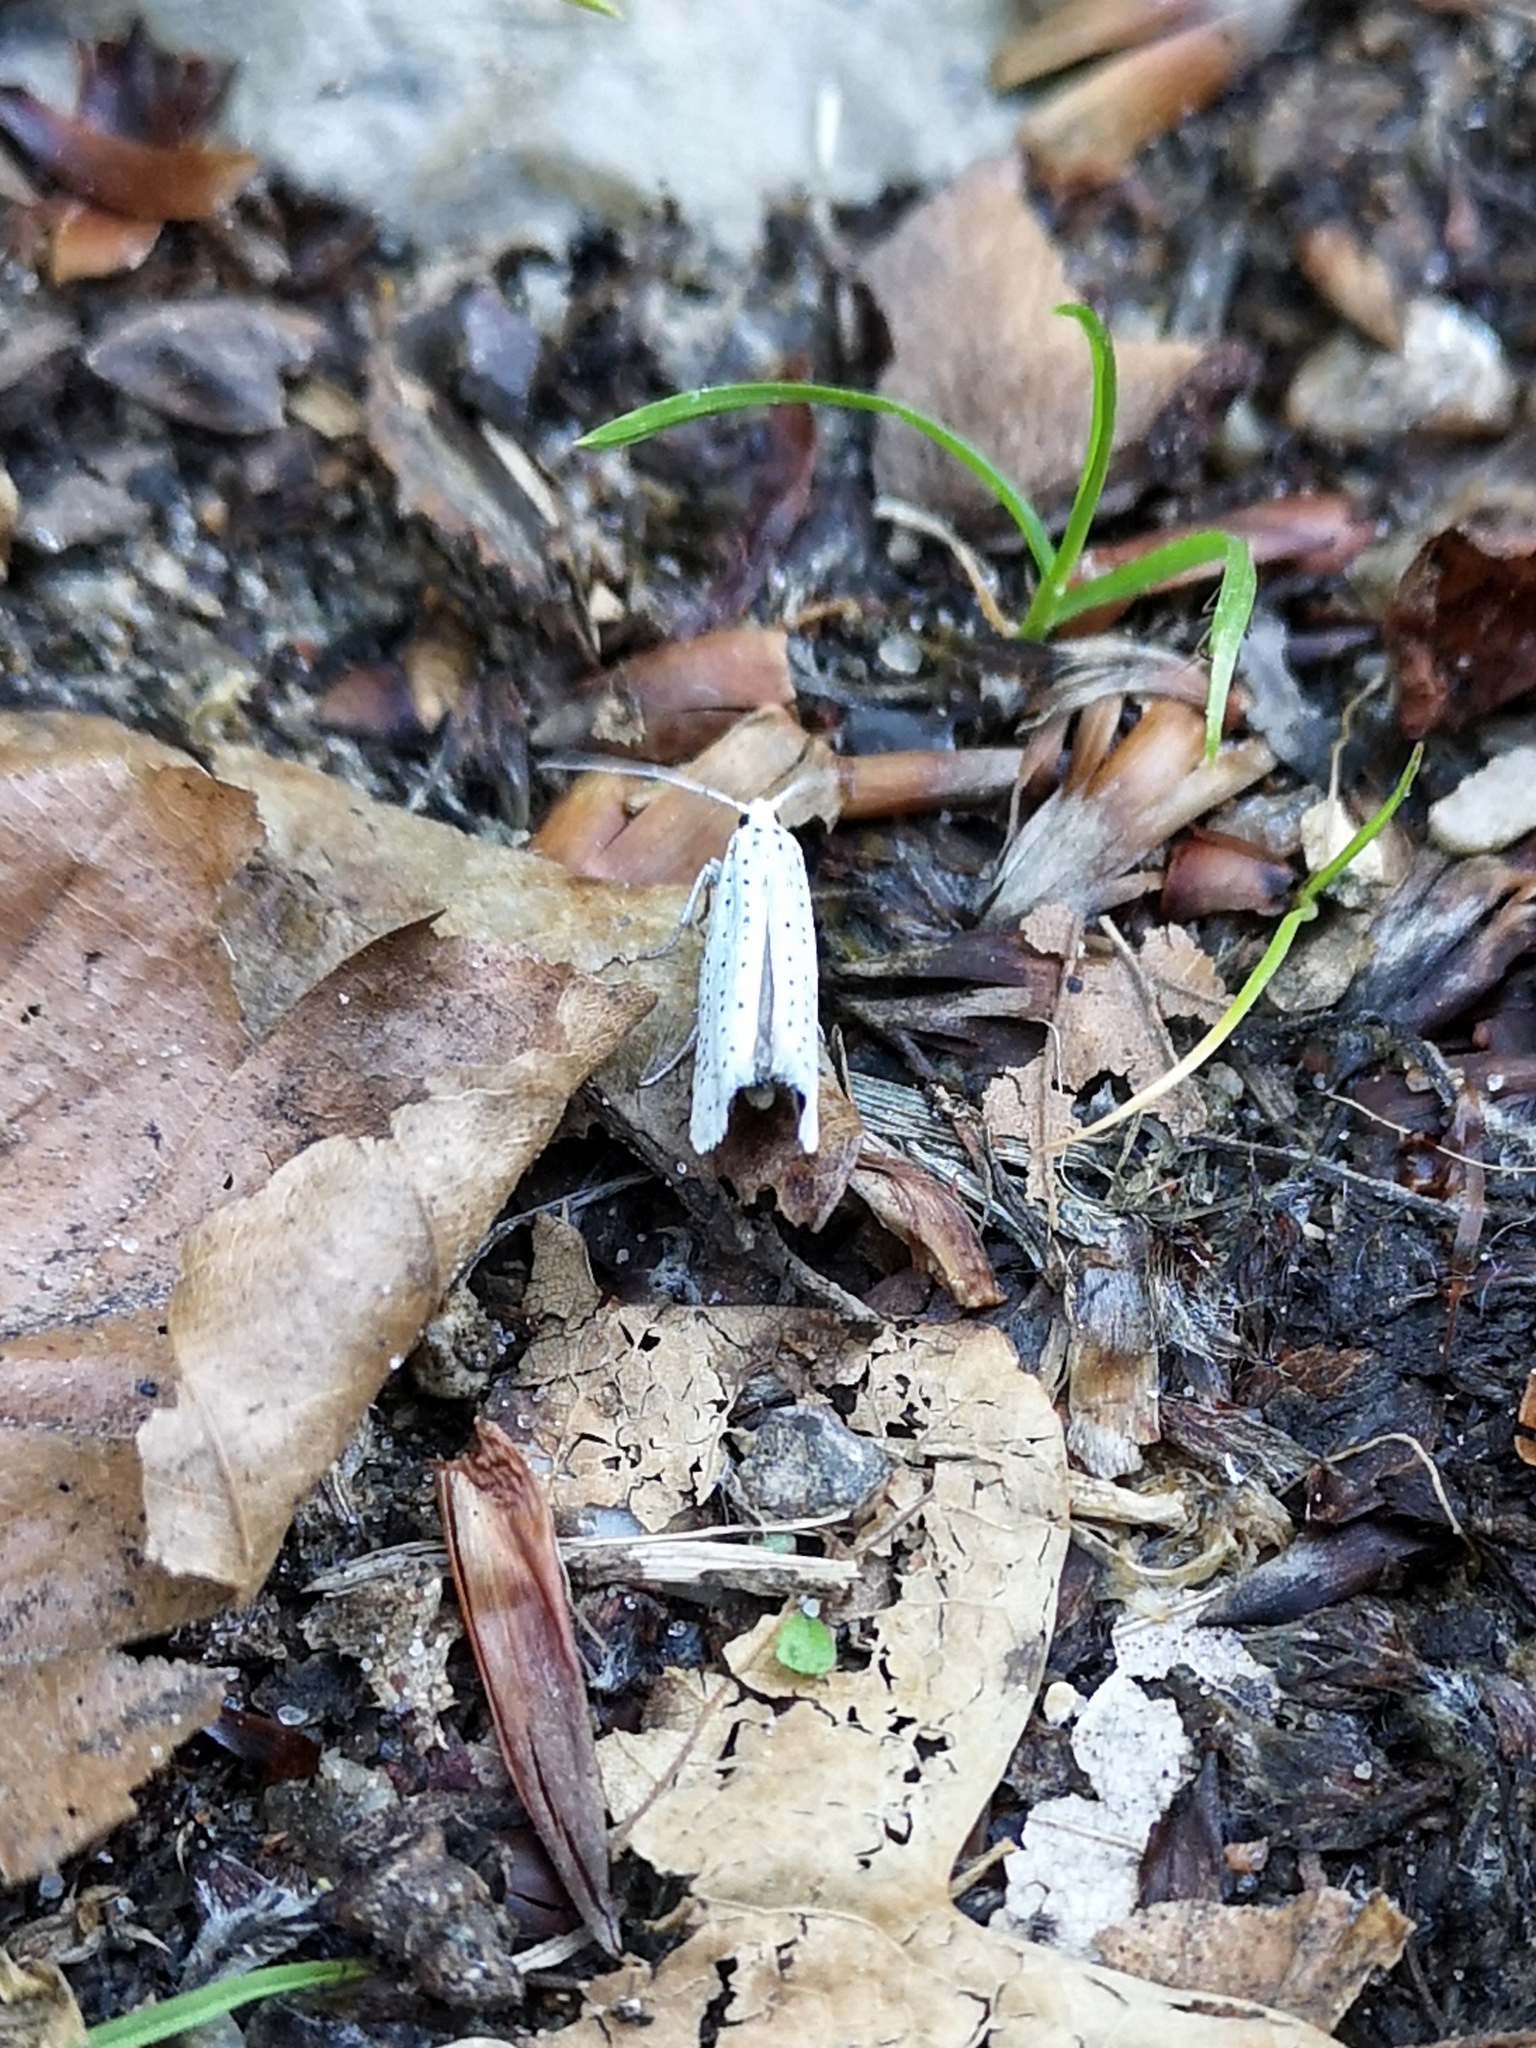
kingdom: Animalia
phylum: Arthropoda
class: Insecta
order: Lepidoptera
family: Yponomeutidae
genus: Yponomeuta
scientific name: Yponomeuta evonymella
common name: Bird-cherry ermine
